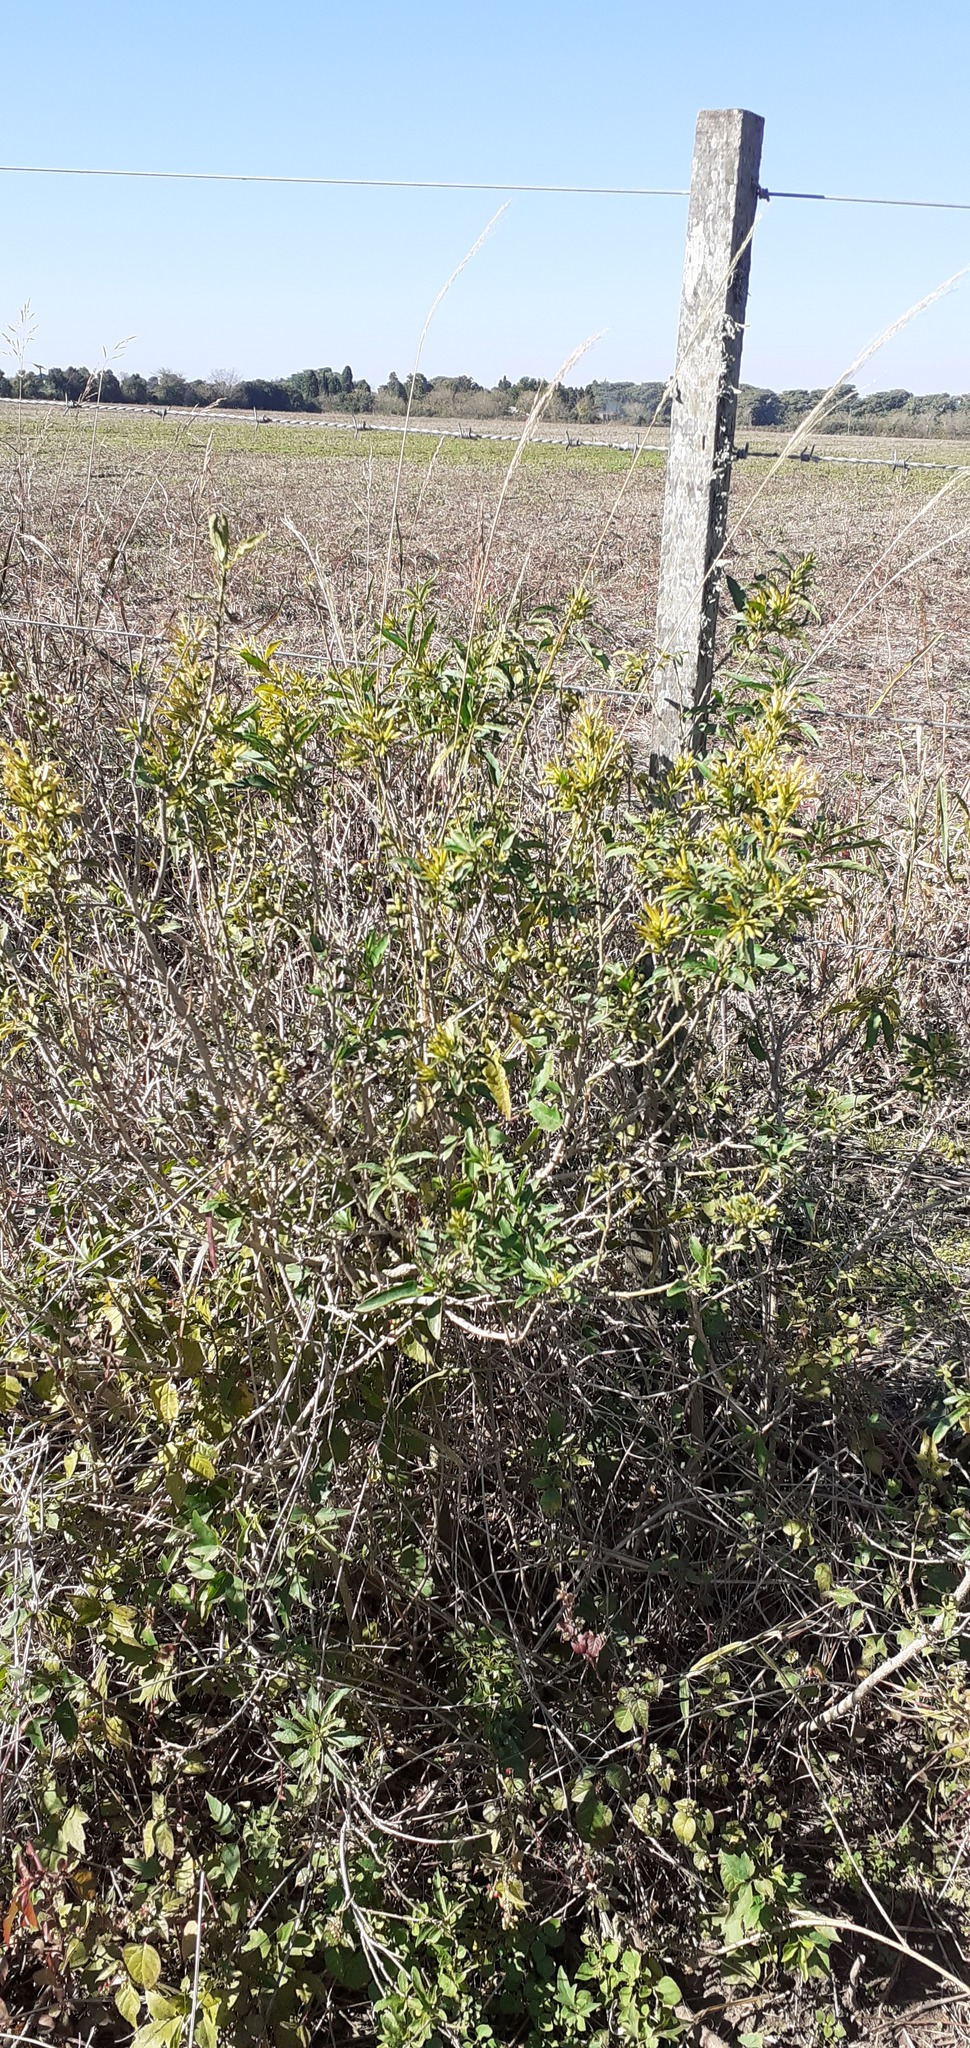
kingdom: Plantae
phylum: Tracheophyta
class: Magnoliopsida
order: Solanales
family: Solanaceae
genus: Cestrum
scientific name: Cestrum parqui
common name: Chilean cestrum
